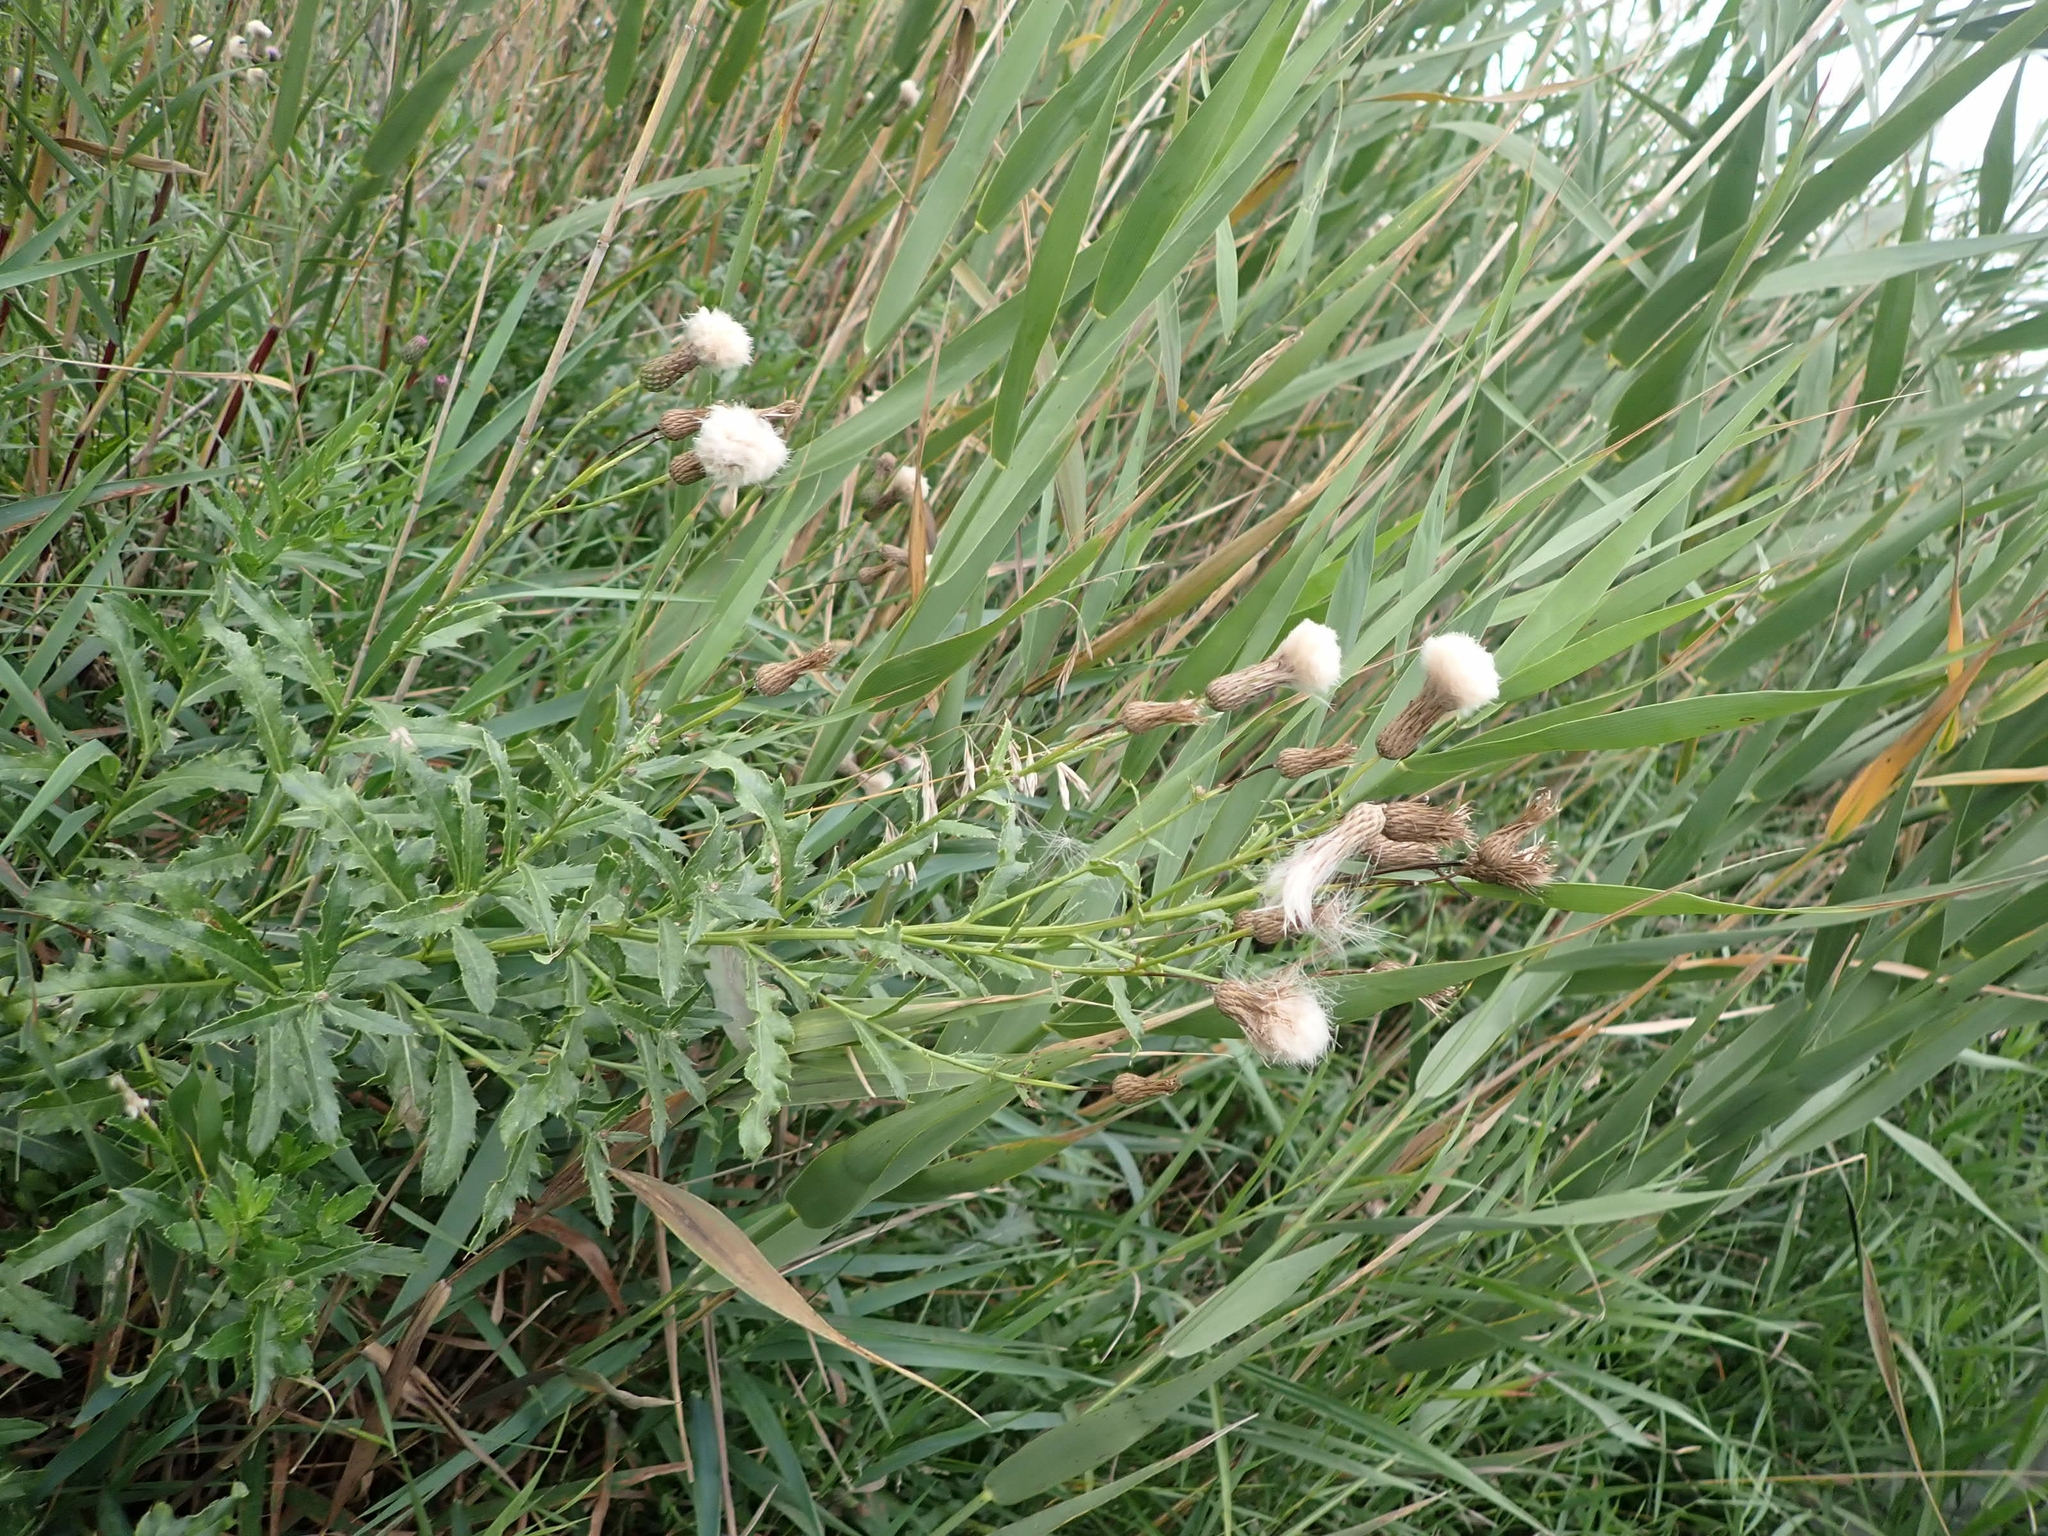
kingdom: Plantae
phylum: Tracheophyta
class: Magnoliopsida
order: Asterales
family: Asteraceae
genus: Cirsium
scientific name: Cirsium arvense
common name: Creeping thistle
